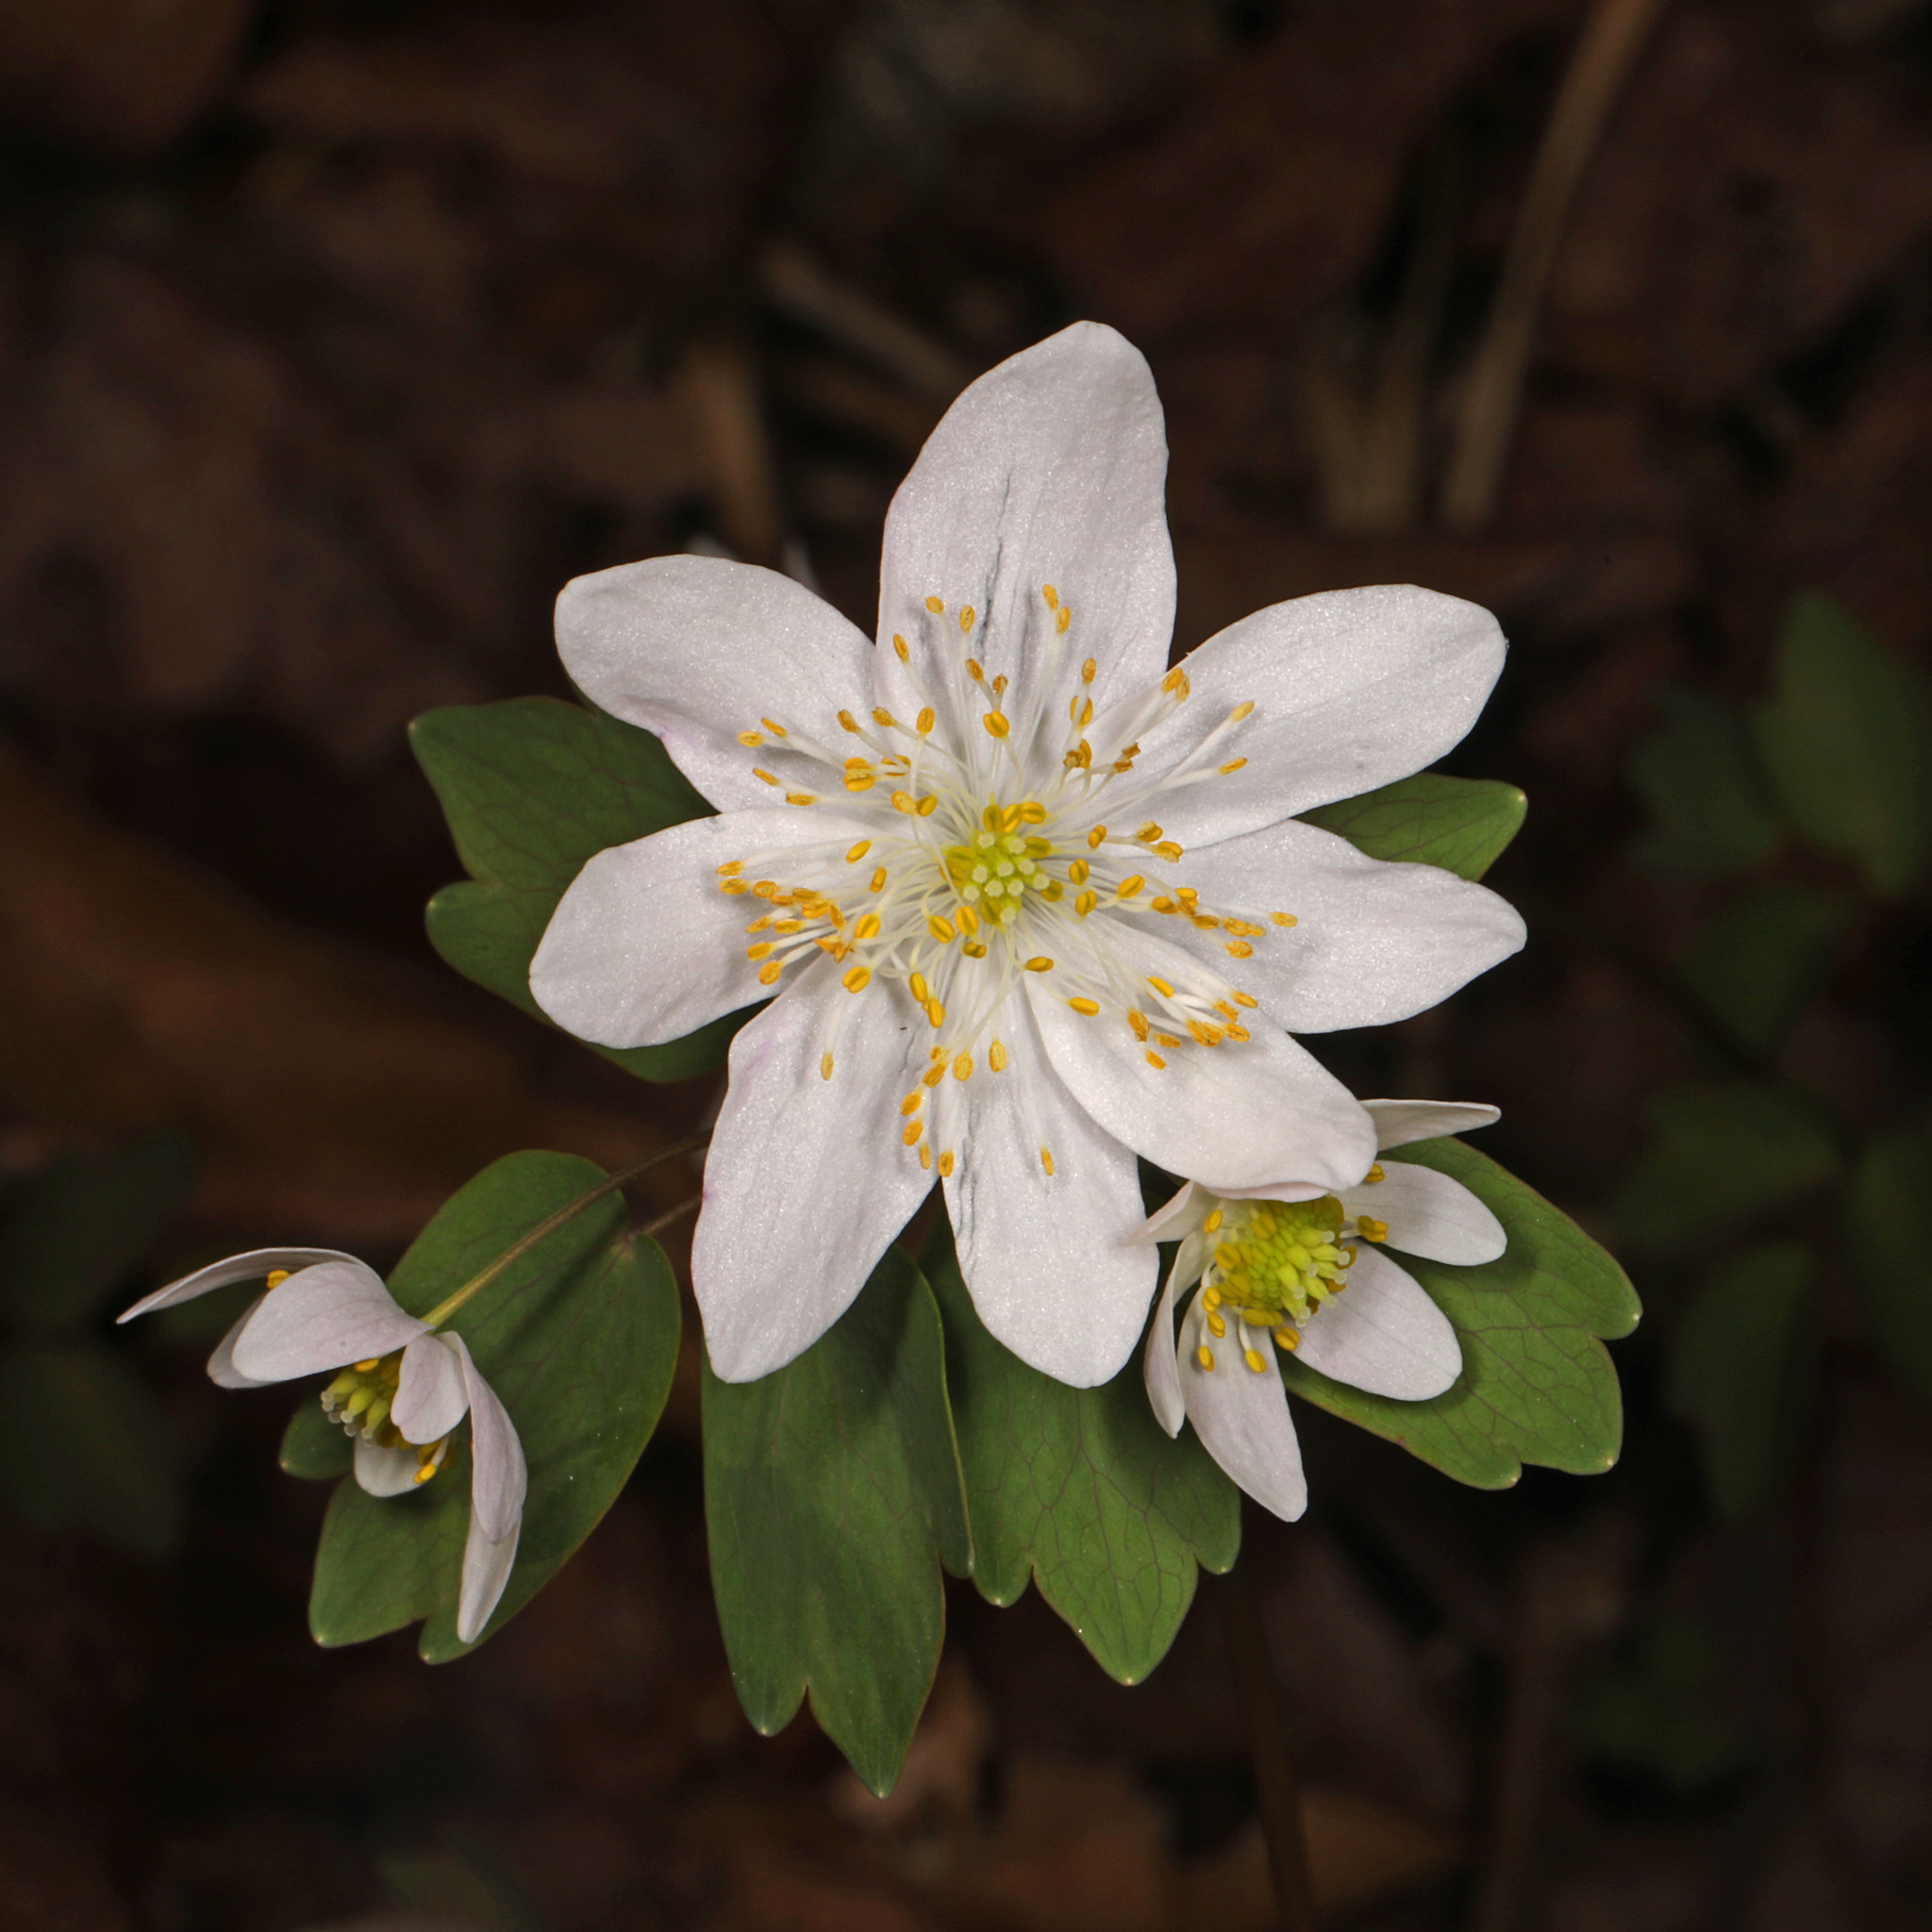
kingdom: Plantae
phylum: Tracheophyta
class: Magnoliopsida
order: Ranunculales
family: Ranunculaceae
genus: Thalictrum
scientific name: Thalictrum thalictroides
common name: Rue-anemone
